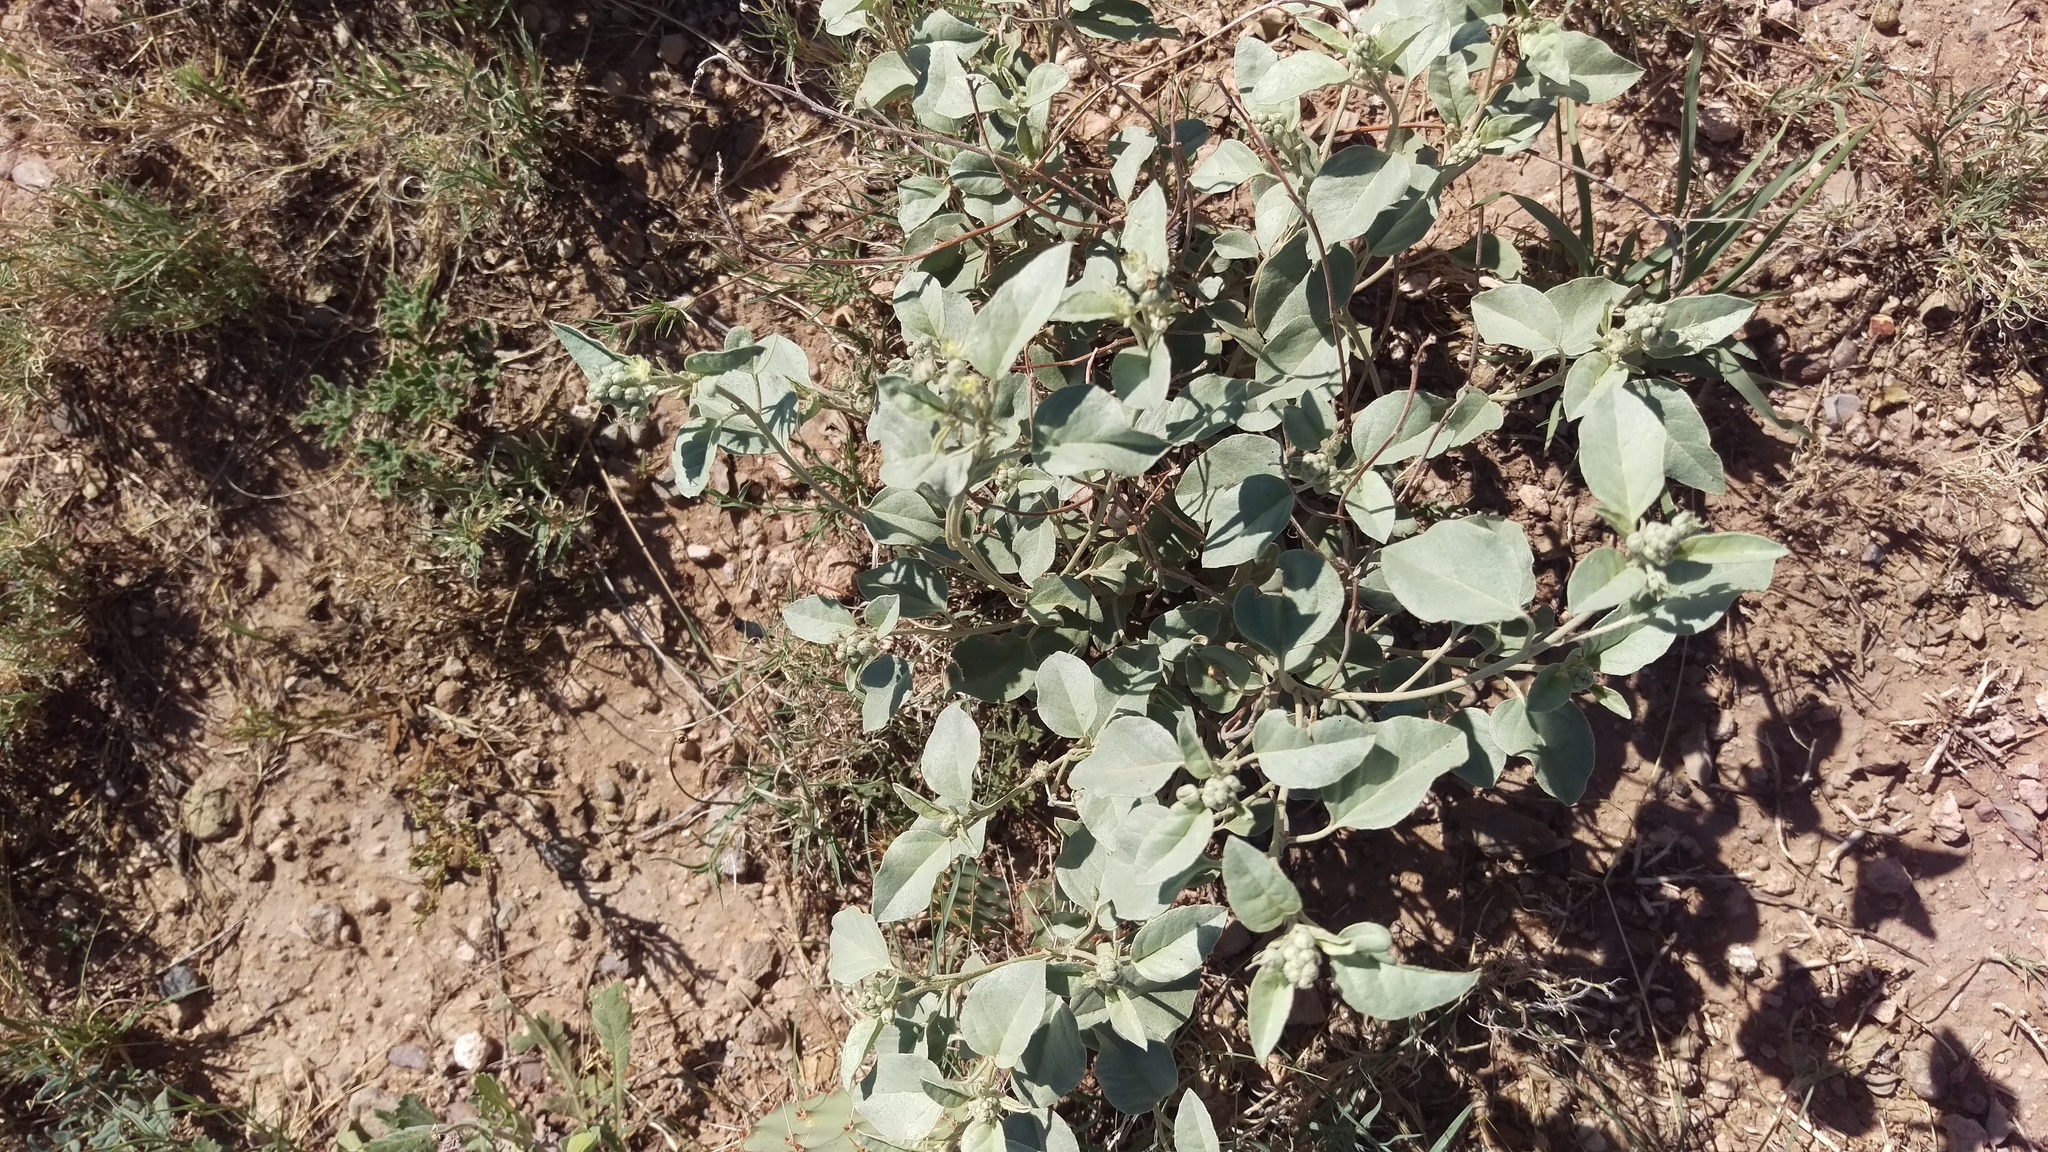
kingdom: Plantae
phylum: Tracheophyta
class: Magnoliopsida
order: Malpighiales
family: Euphorbiaceae
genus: Croton
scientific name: Croton pottsii
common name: Leatherweed
